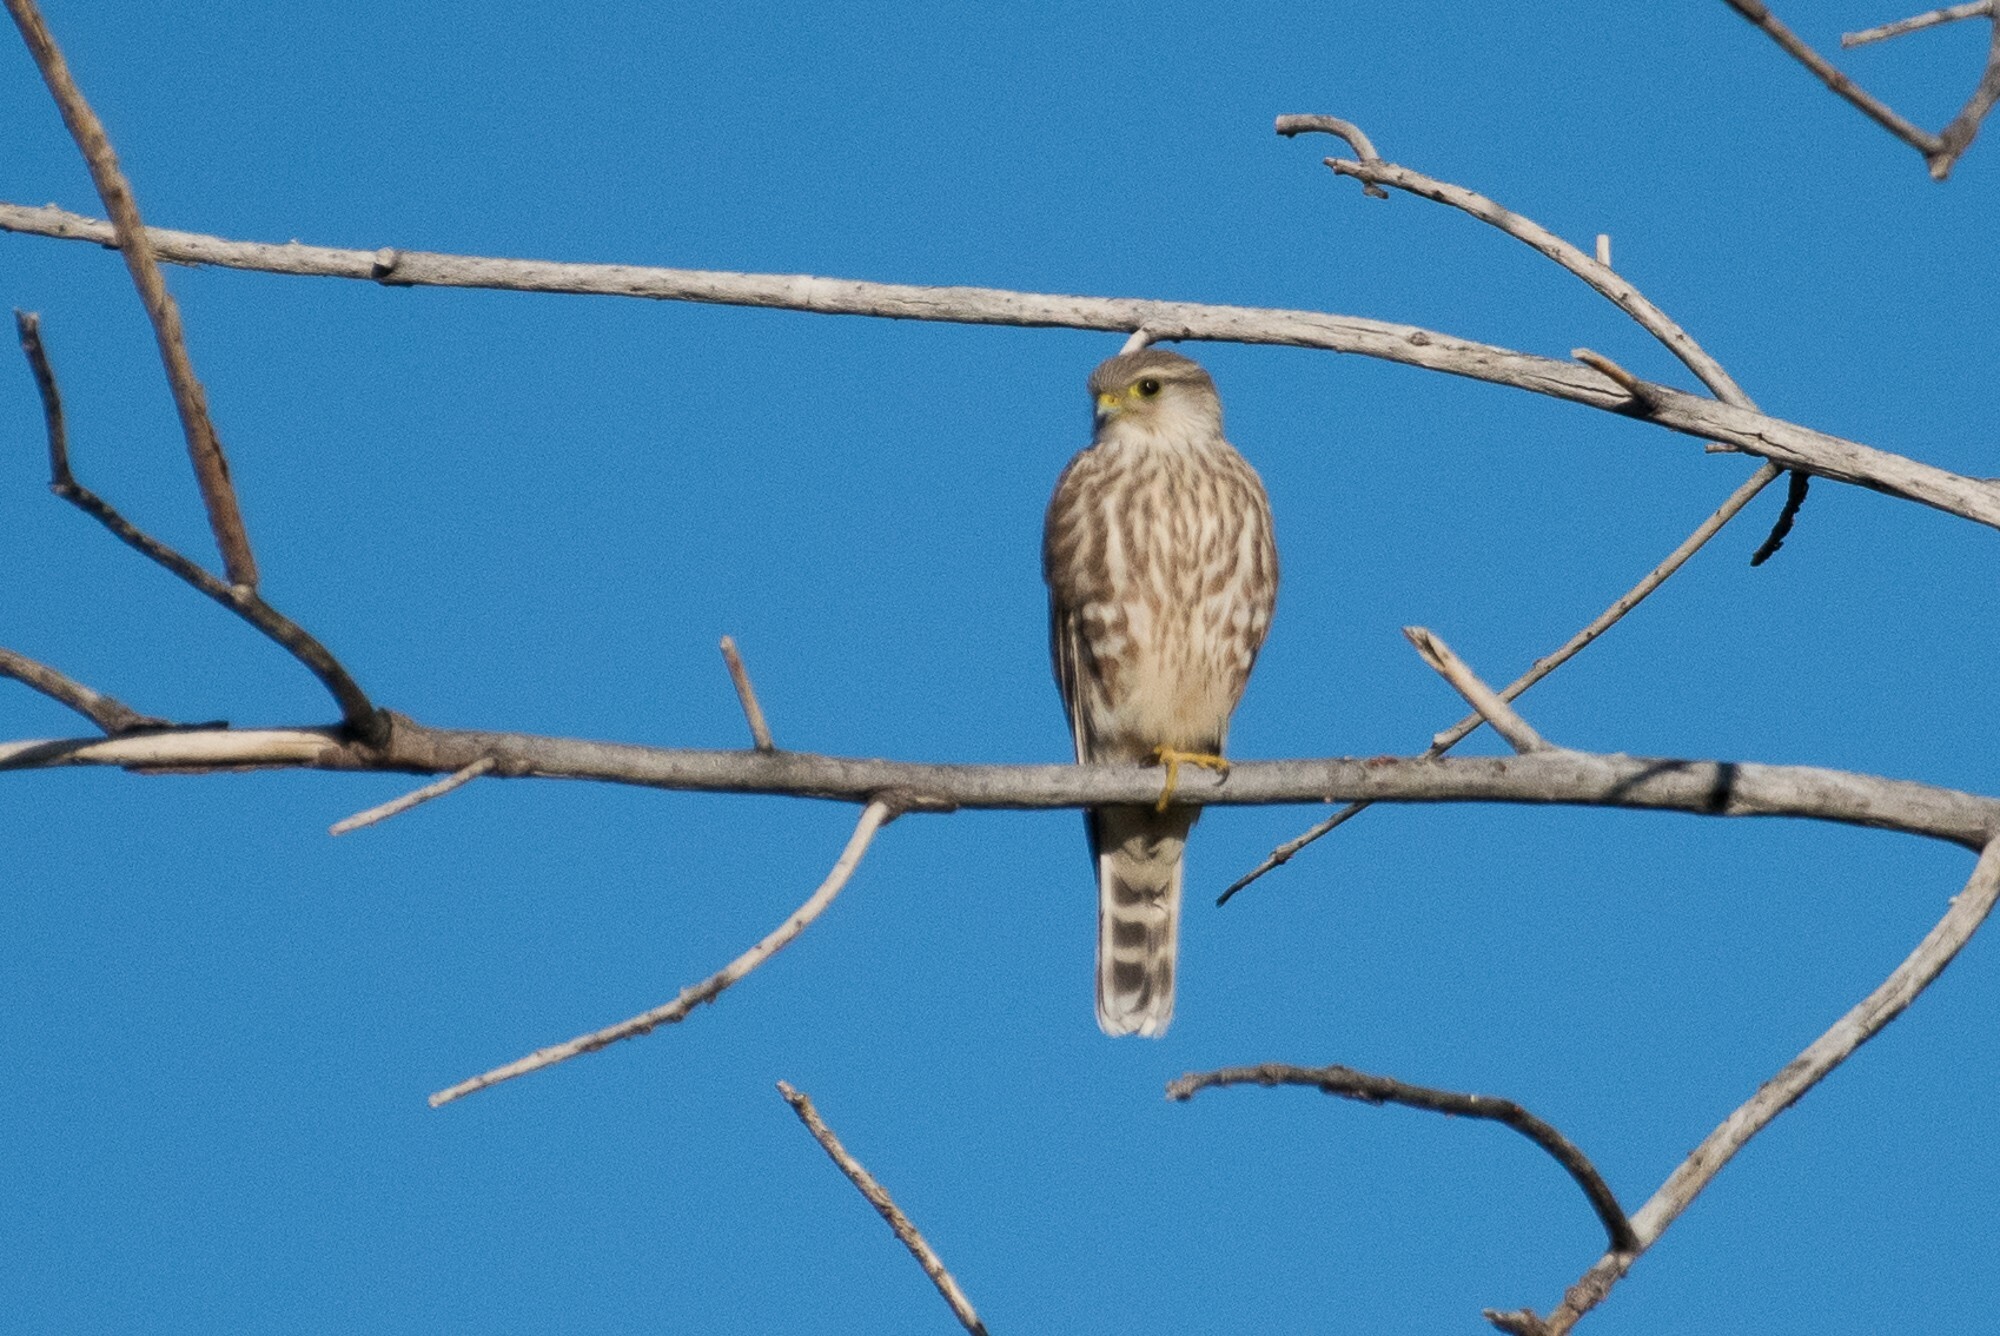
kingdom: Animalia
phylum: Chordata
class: Aves
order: Falconiformes
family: Falconidae
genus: Falco
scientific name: Falco columbarius
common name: Merlin
